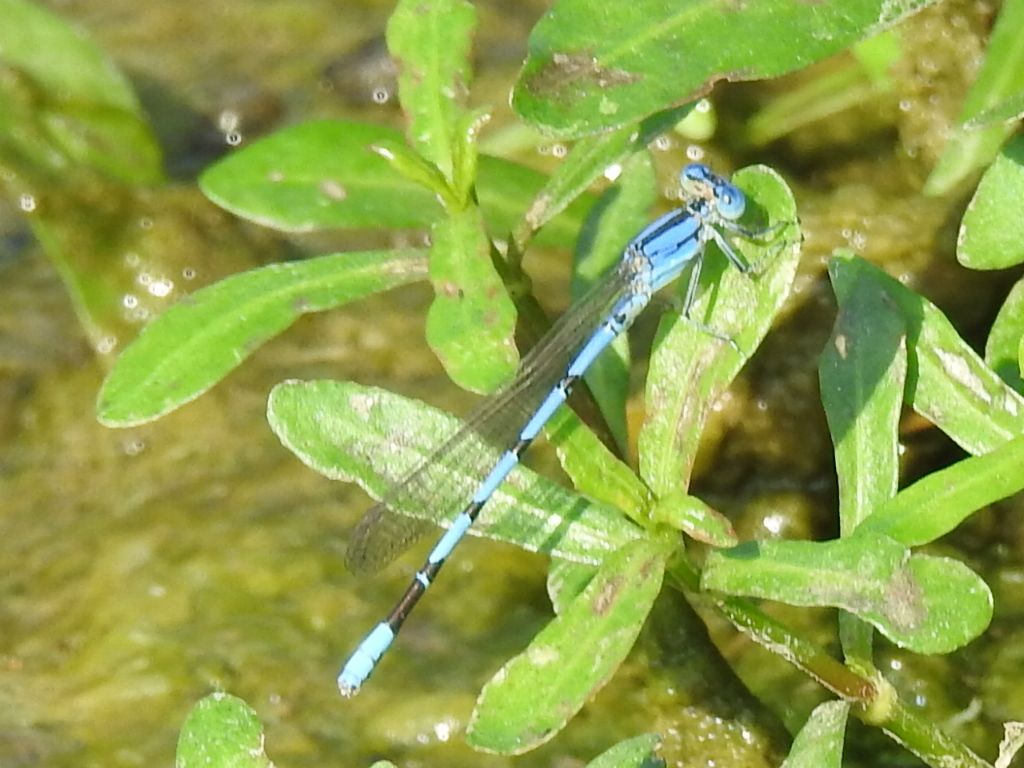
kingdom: Animalia
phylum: Arthropoda
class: Insecta
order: Odonata
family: Coenagrionidae
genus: Argia
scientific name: Argia nahuana
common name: Aztec dancer
